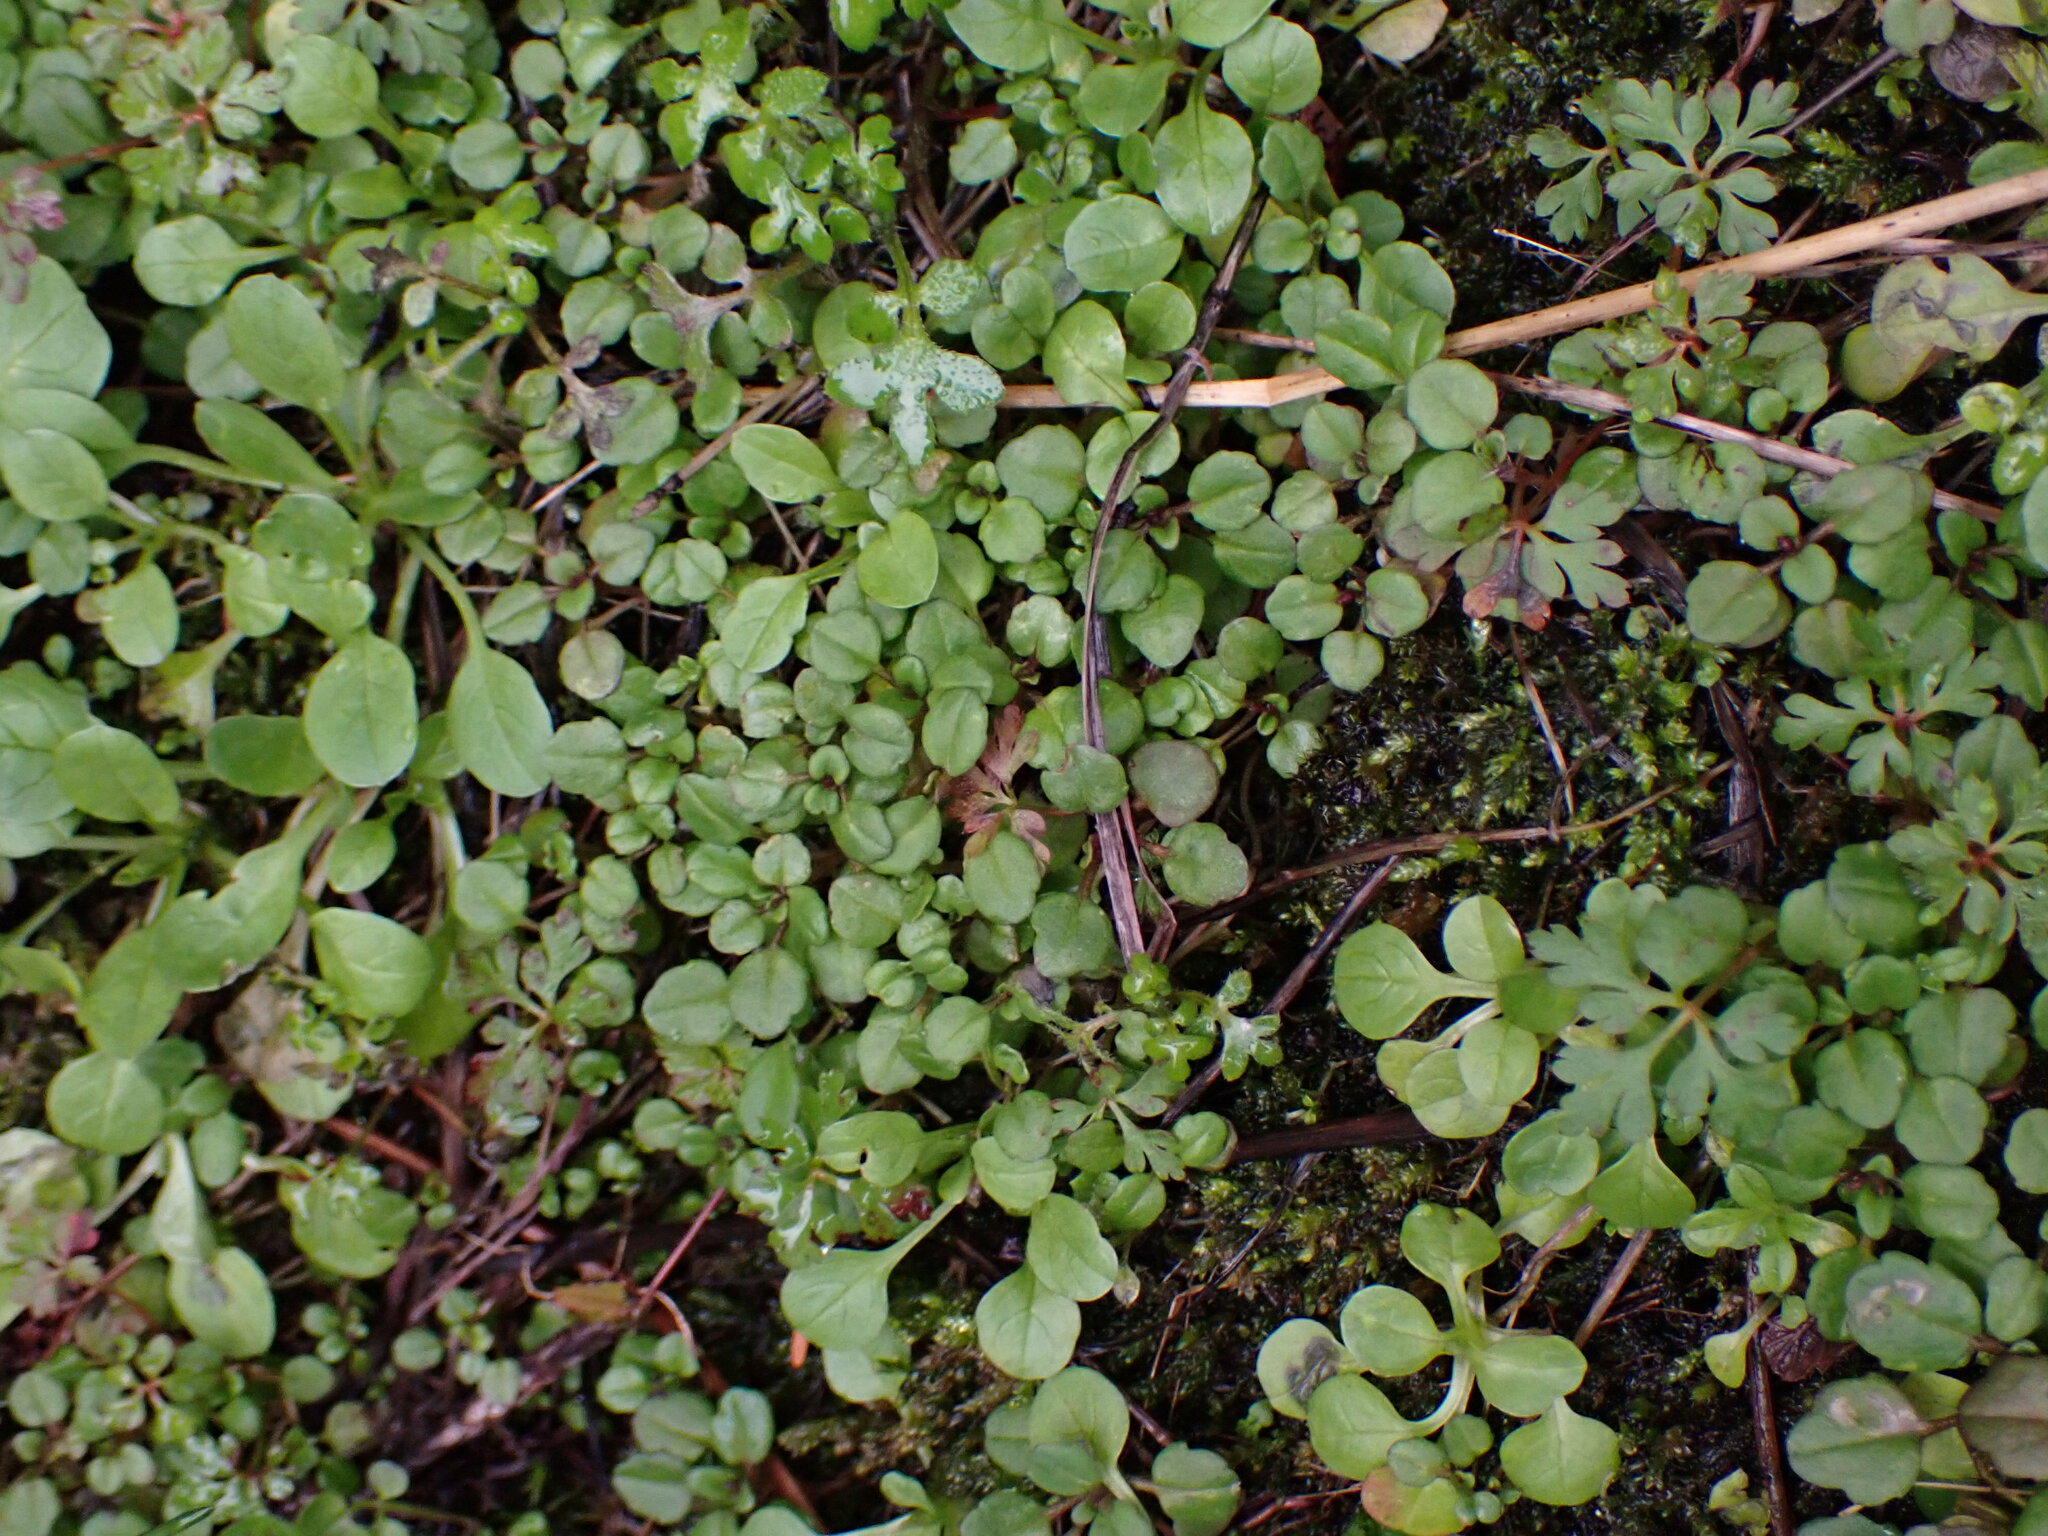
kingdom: Plantae
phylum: Tracheophyta
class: Magnoliopsida
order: Dipsacales
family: Caprifoliaceae
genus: Plectritis
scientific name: Plectritis congesta
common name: Pink plectritis
